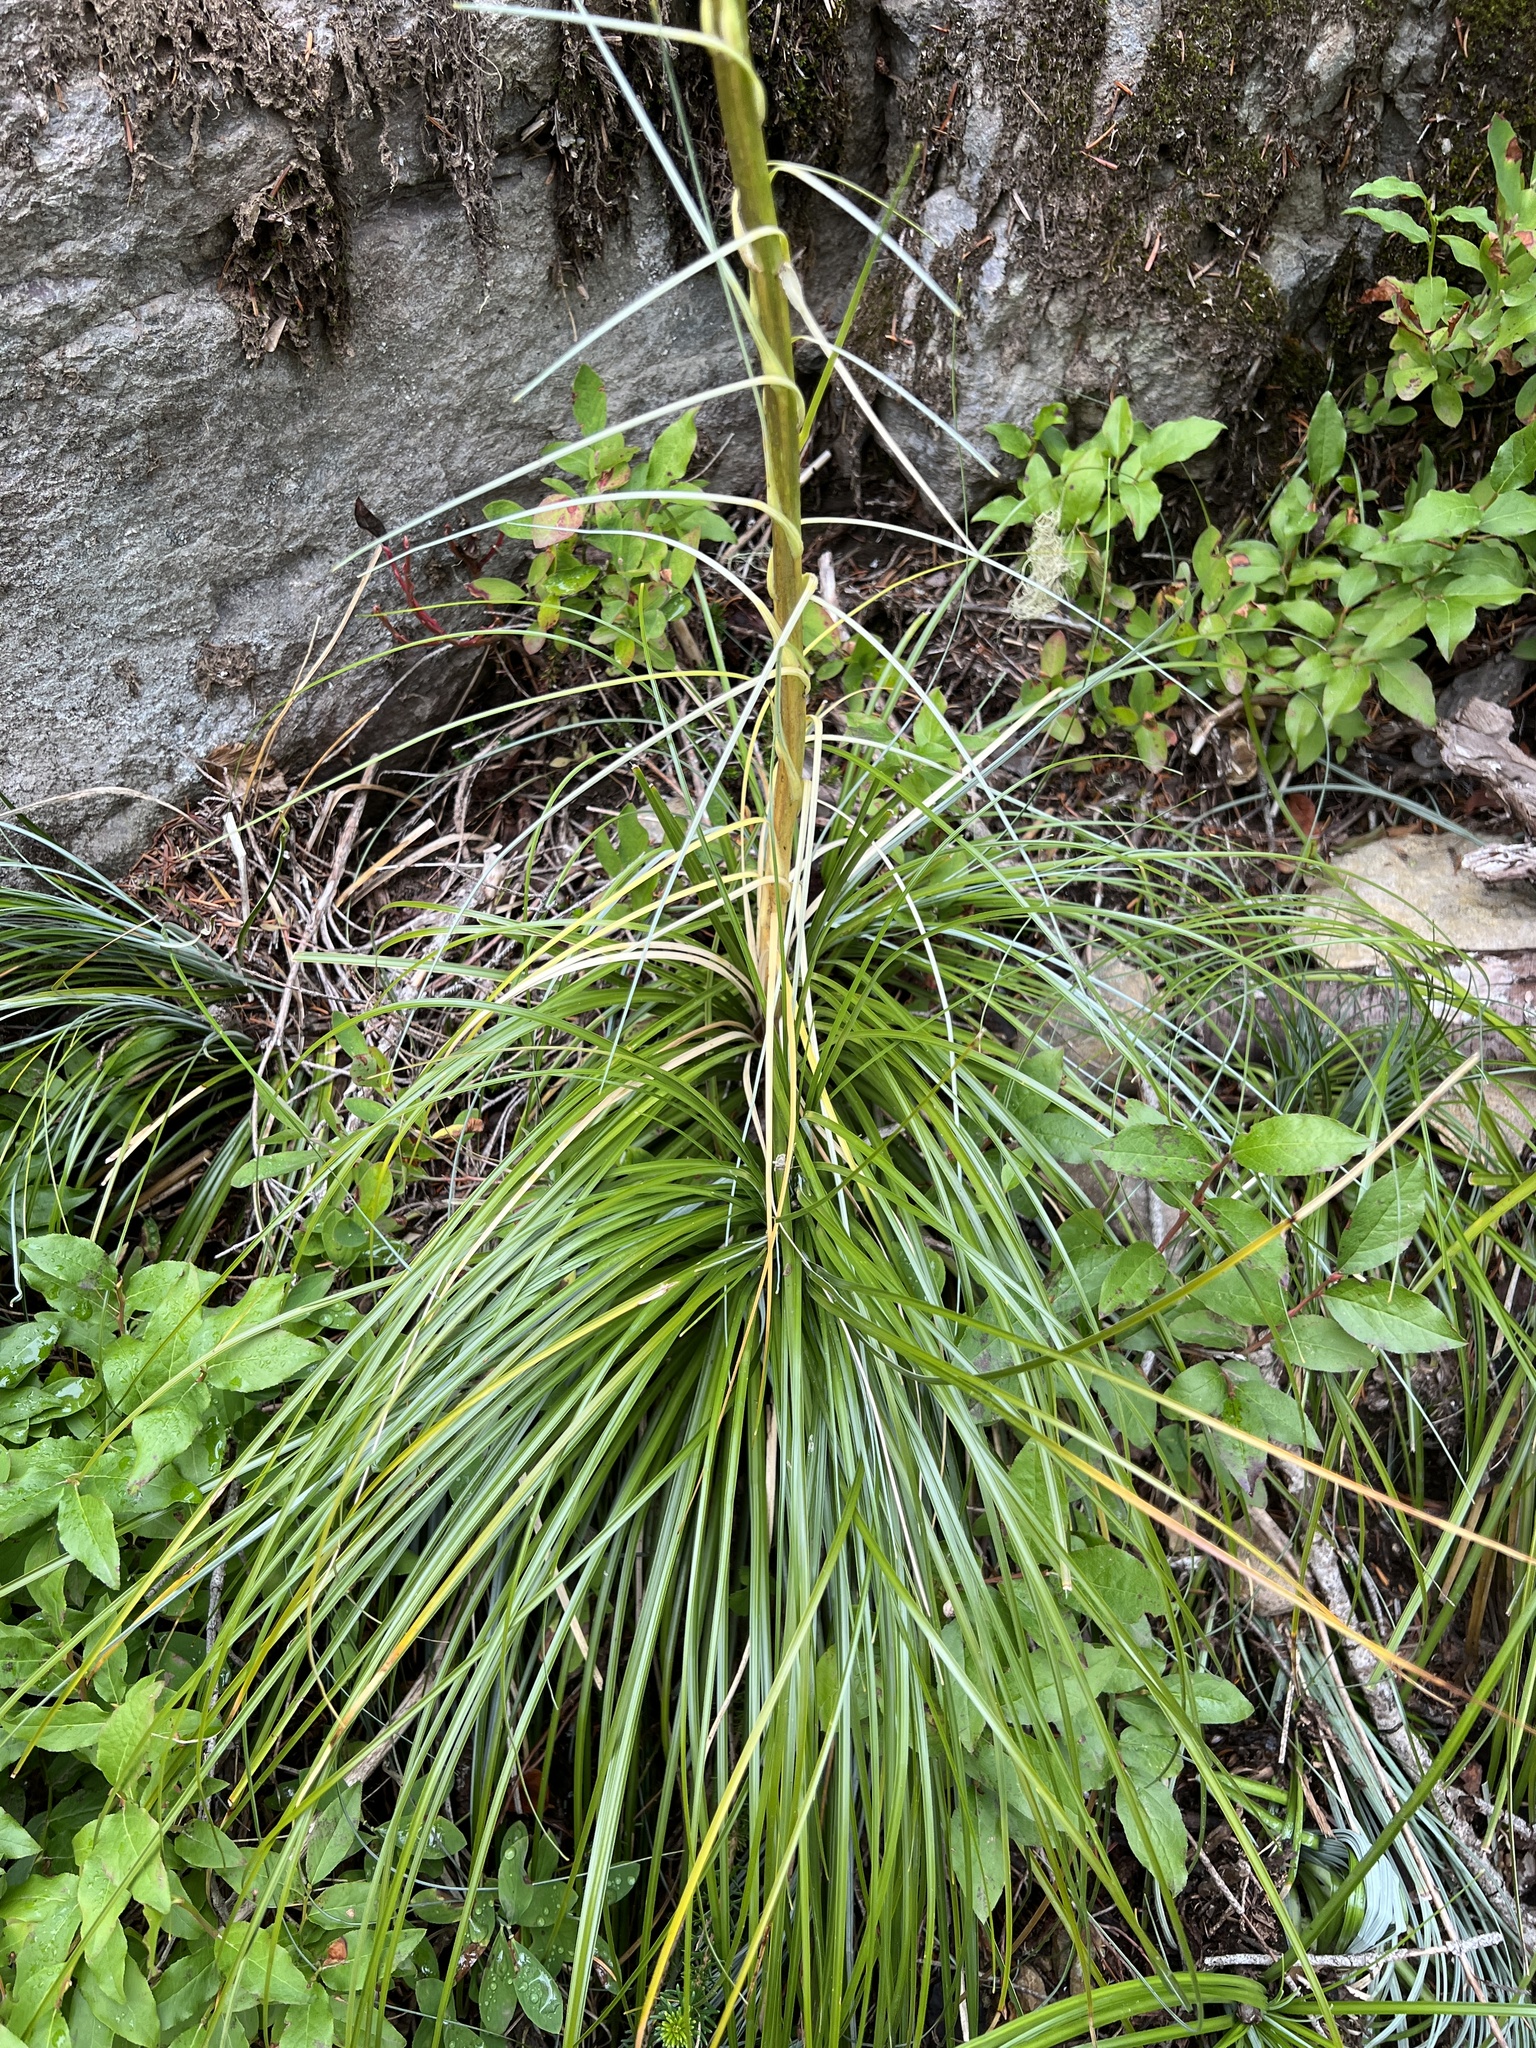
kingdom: Plantae
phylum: Tracheophyta
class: Liliopsida
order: Liliales
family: Melanthiaceae
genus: Xerophyllum
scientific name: Xerophyllum tenax
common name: Bear-grass
